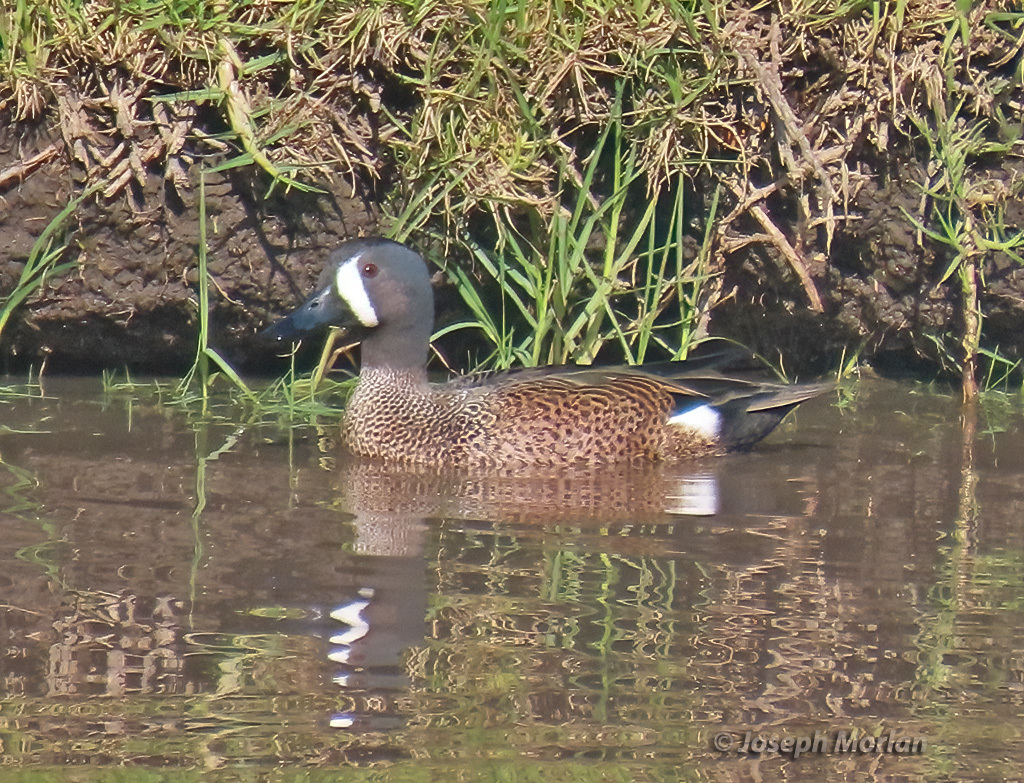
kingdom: Animalia
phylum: Chordata
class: Aves
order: Anseriformes
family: Anatidae
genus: Spatula
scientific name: Spatula discors
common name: Blue-winged teal
